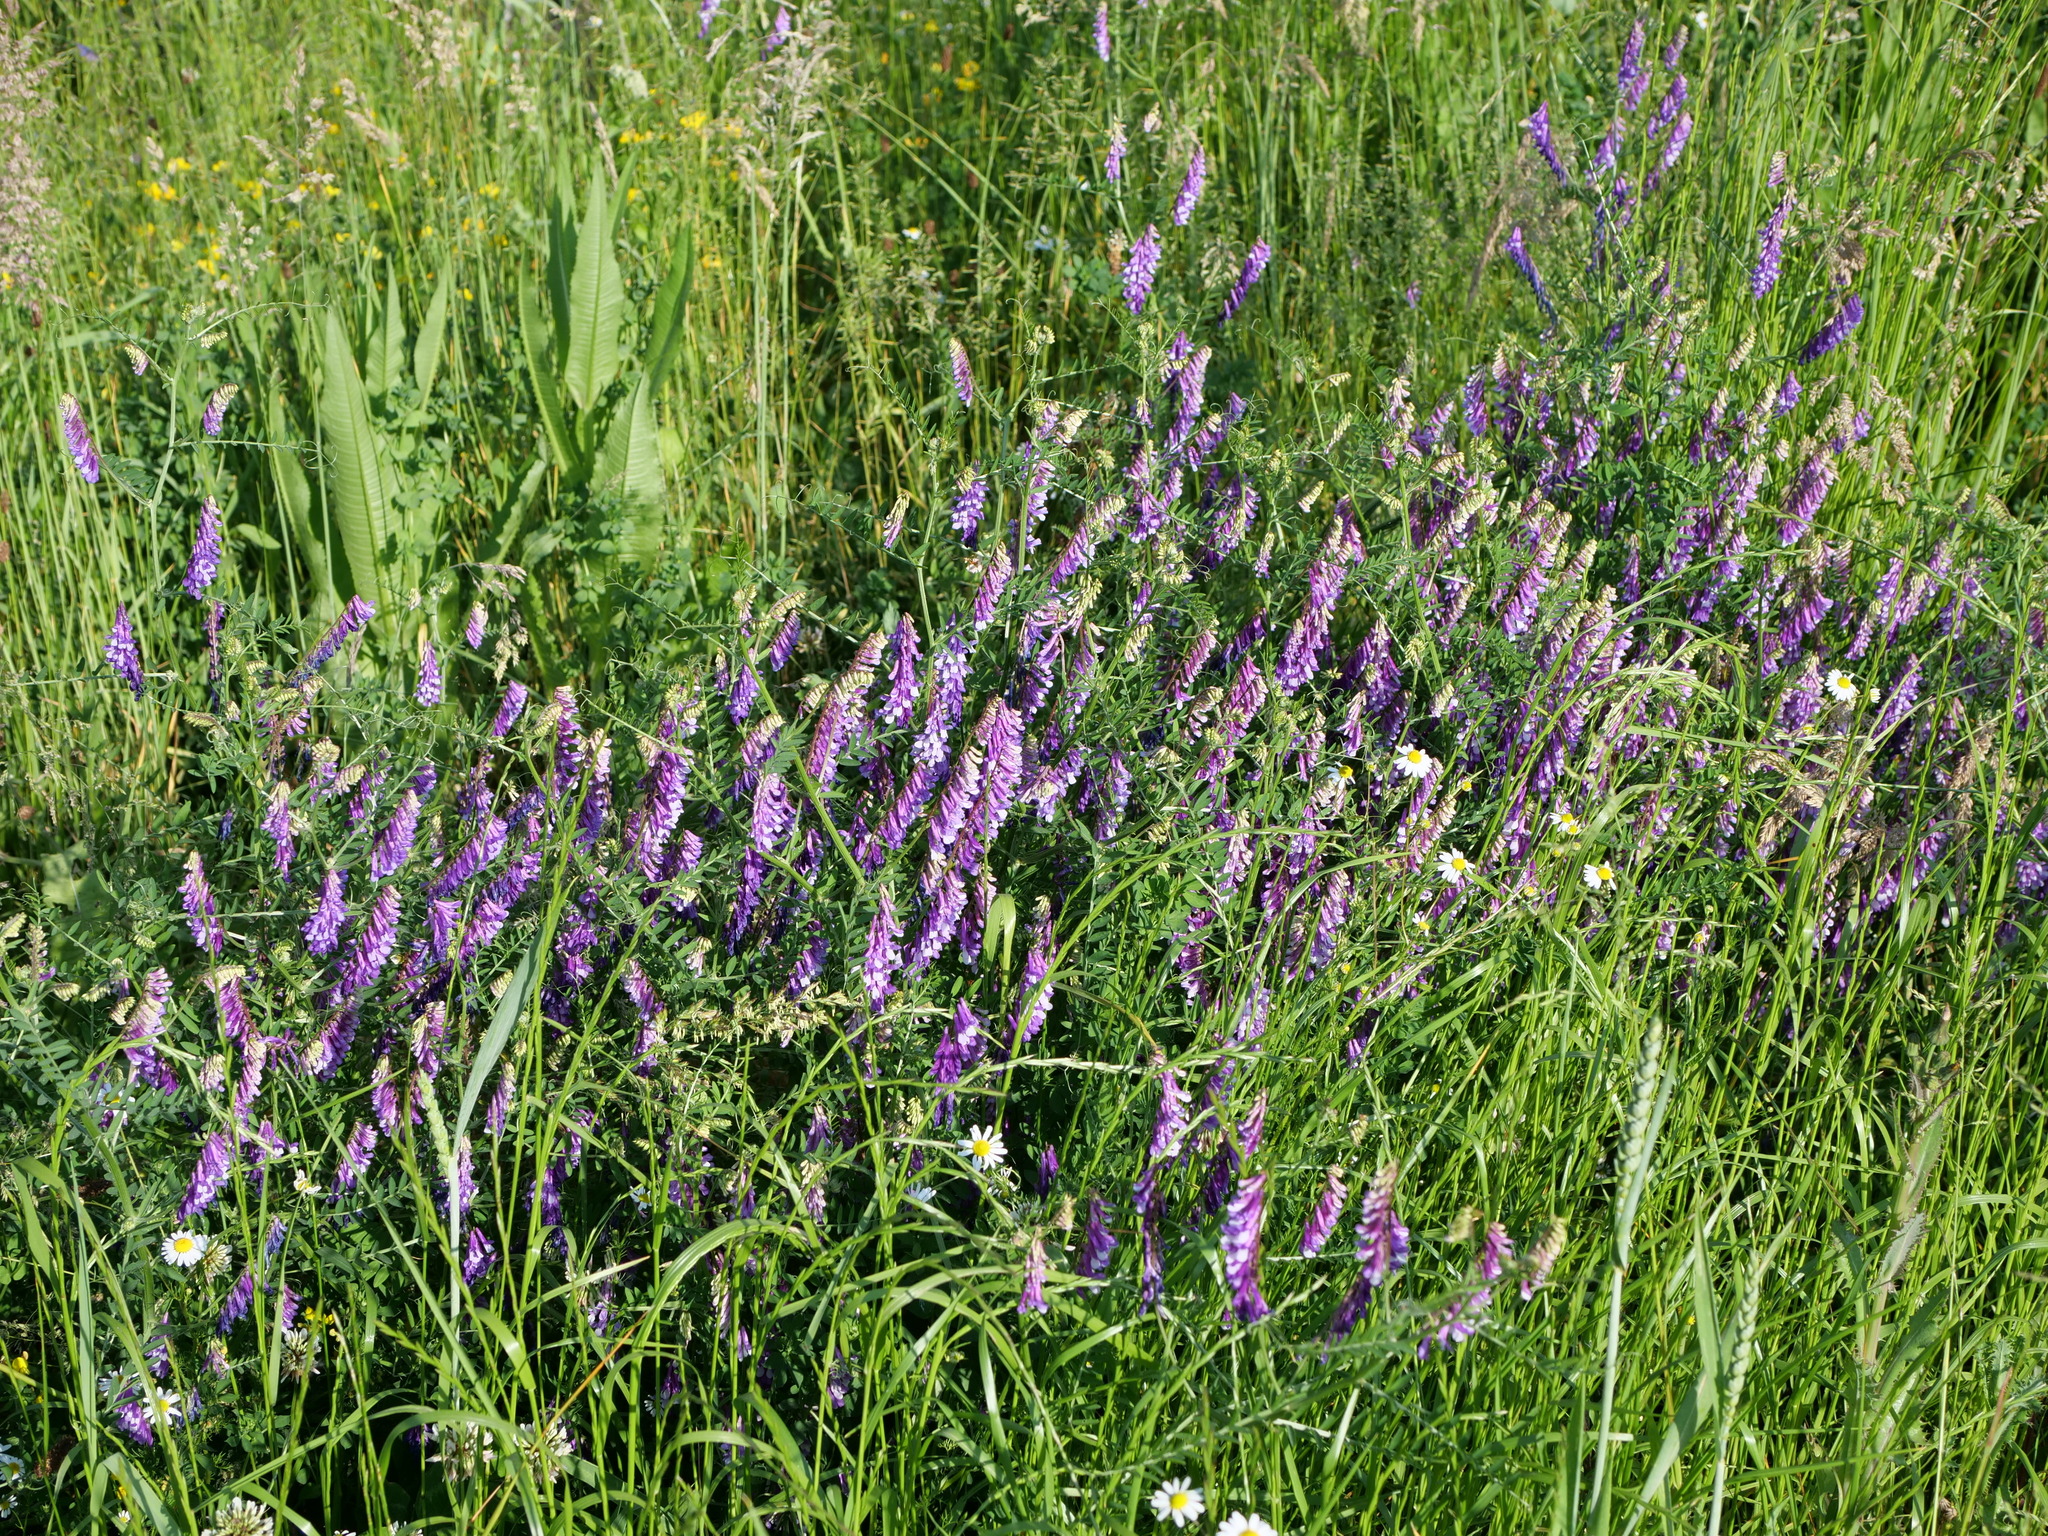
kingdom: Plantae
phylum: Tracheophyta
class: Magnoliopsida
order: Fabales
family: Fabaceae
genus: Vicia
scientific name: Vicia villosa
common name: Fodder vetch
